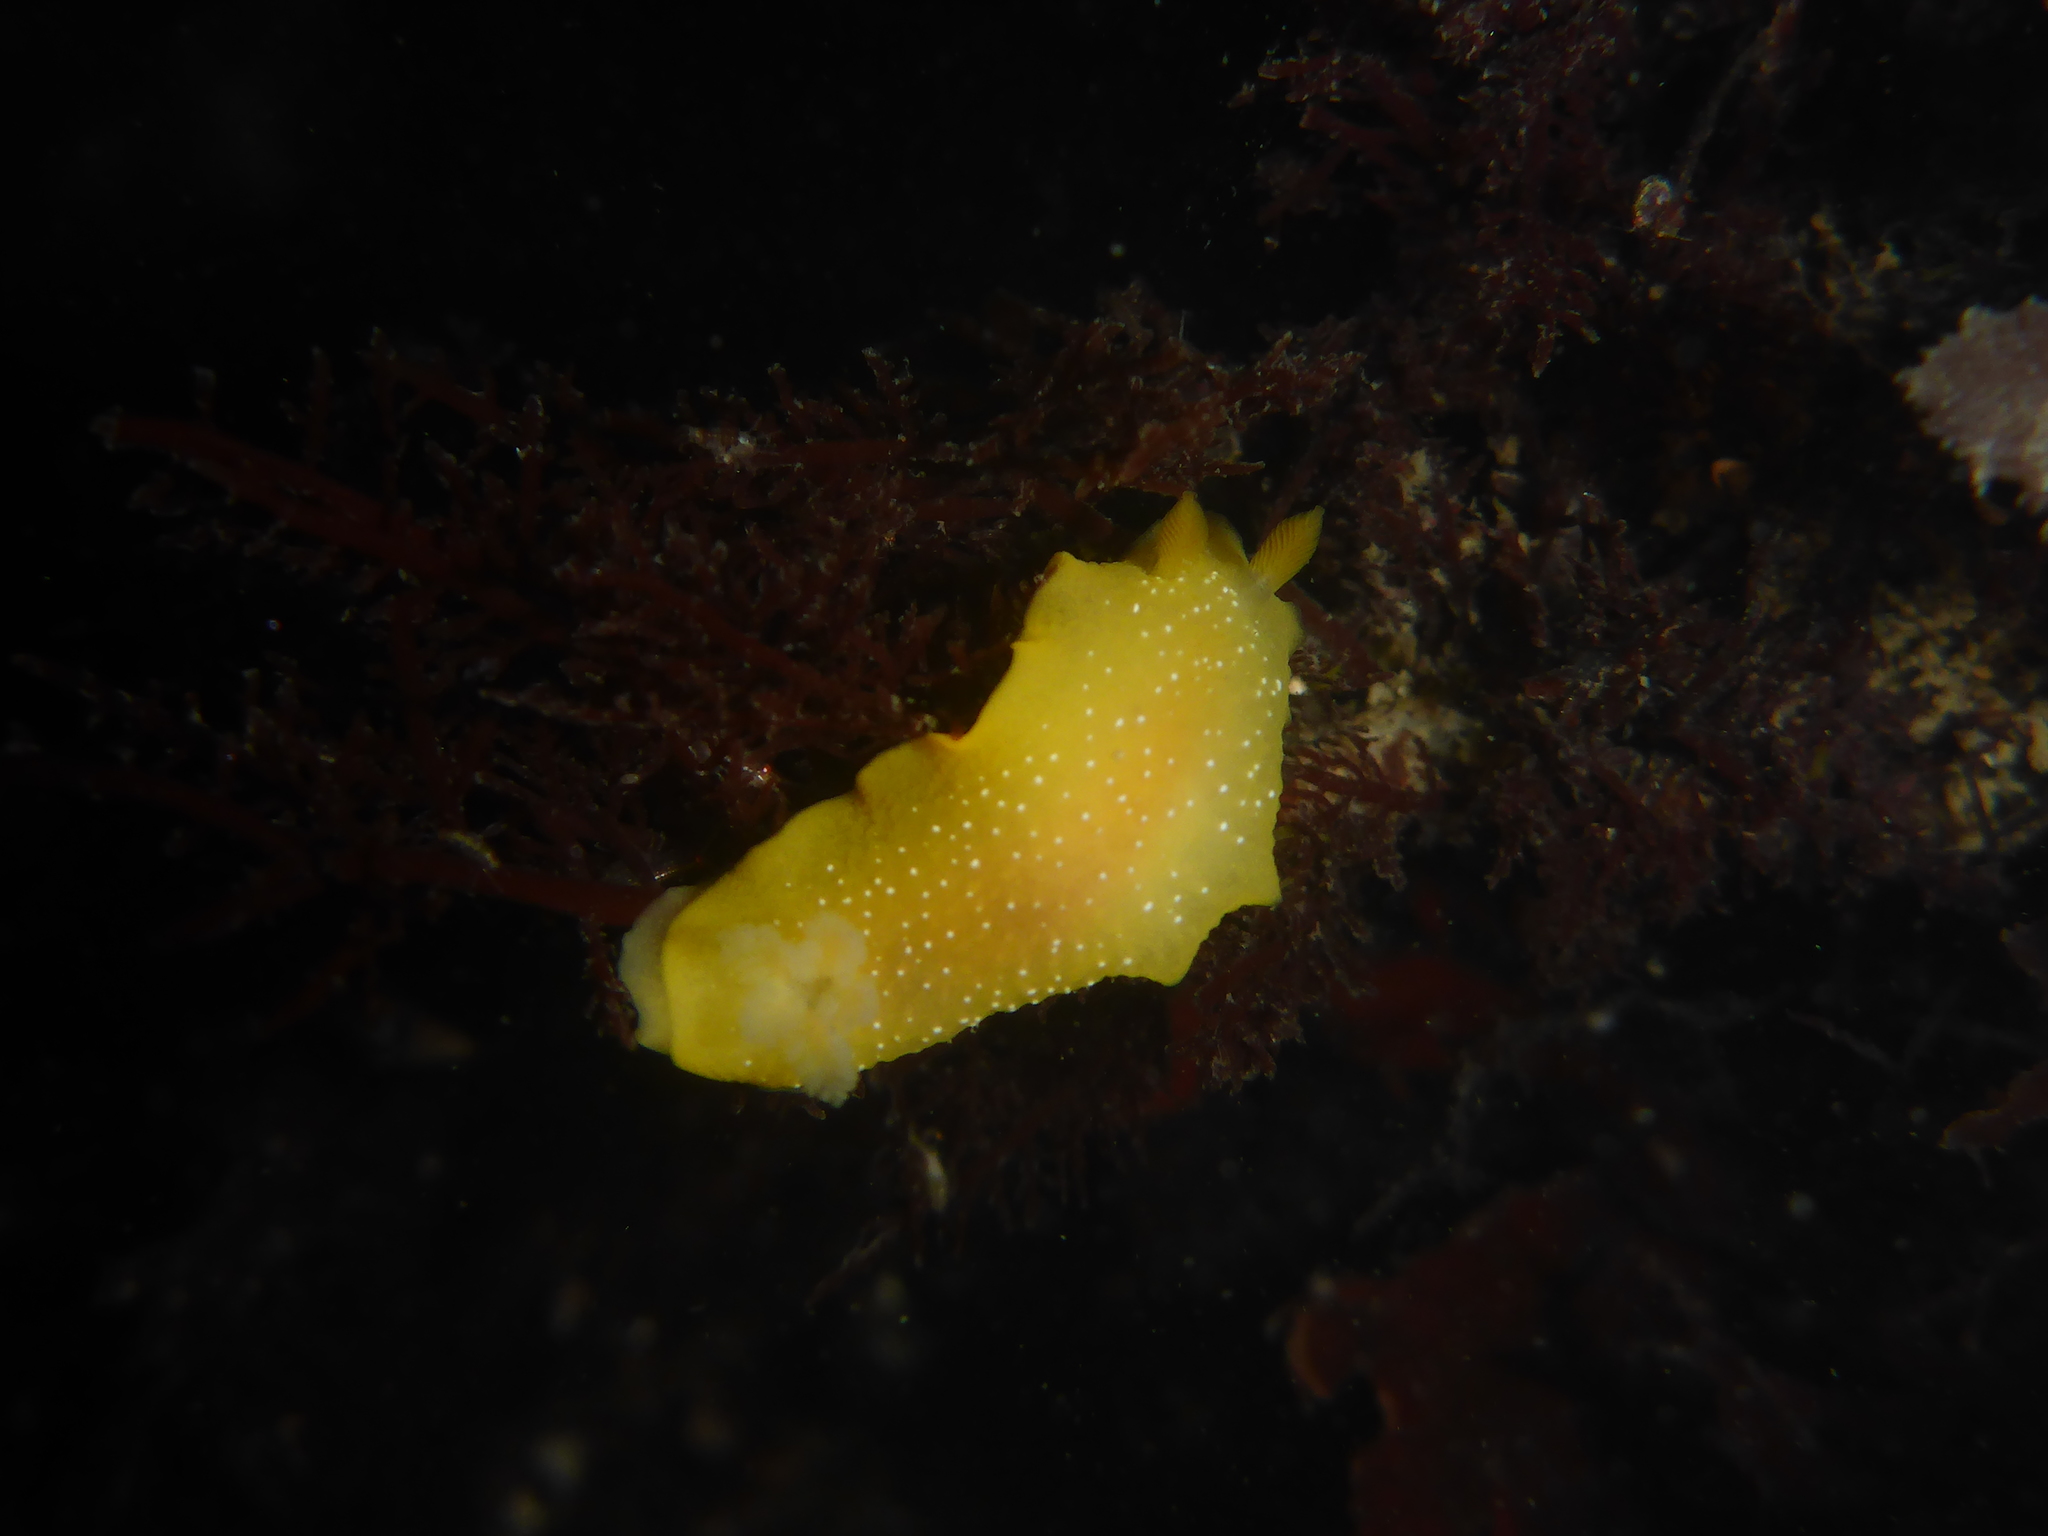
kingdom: Animalia
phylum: Mollusca
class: Gastropoda
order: Nudibranchia
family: Dendrodorididae
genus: Doriopsilla
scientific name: Doriopsilla fulva
